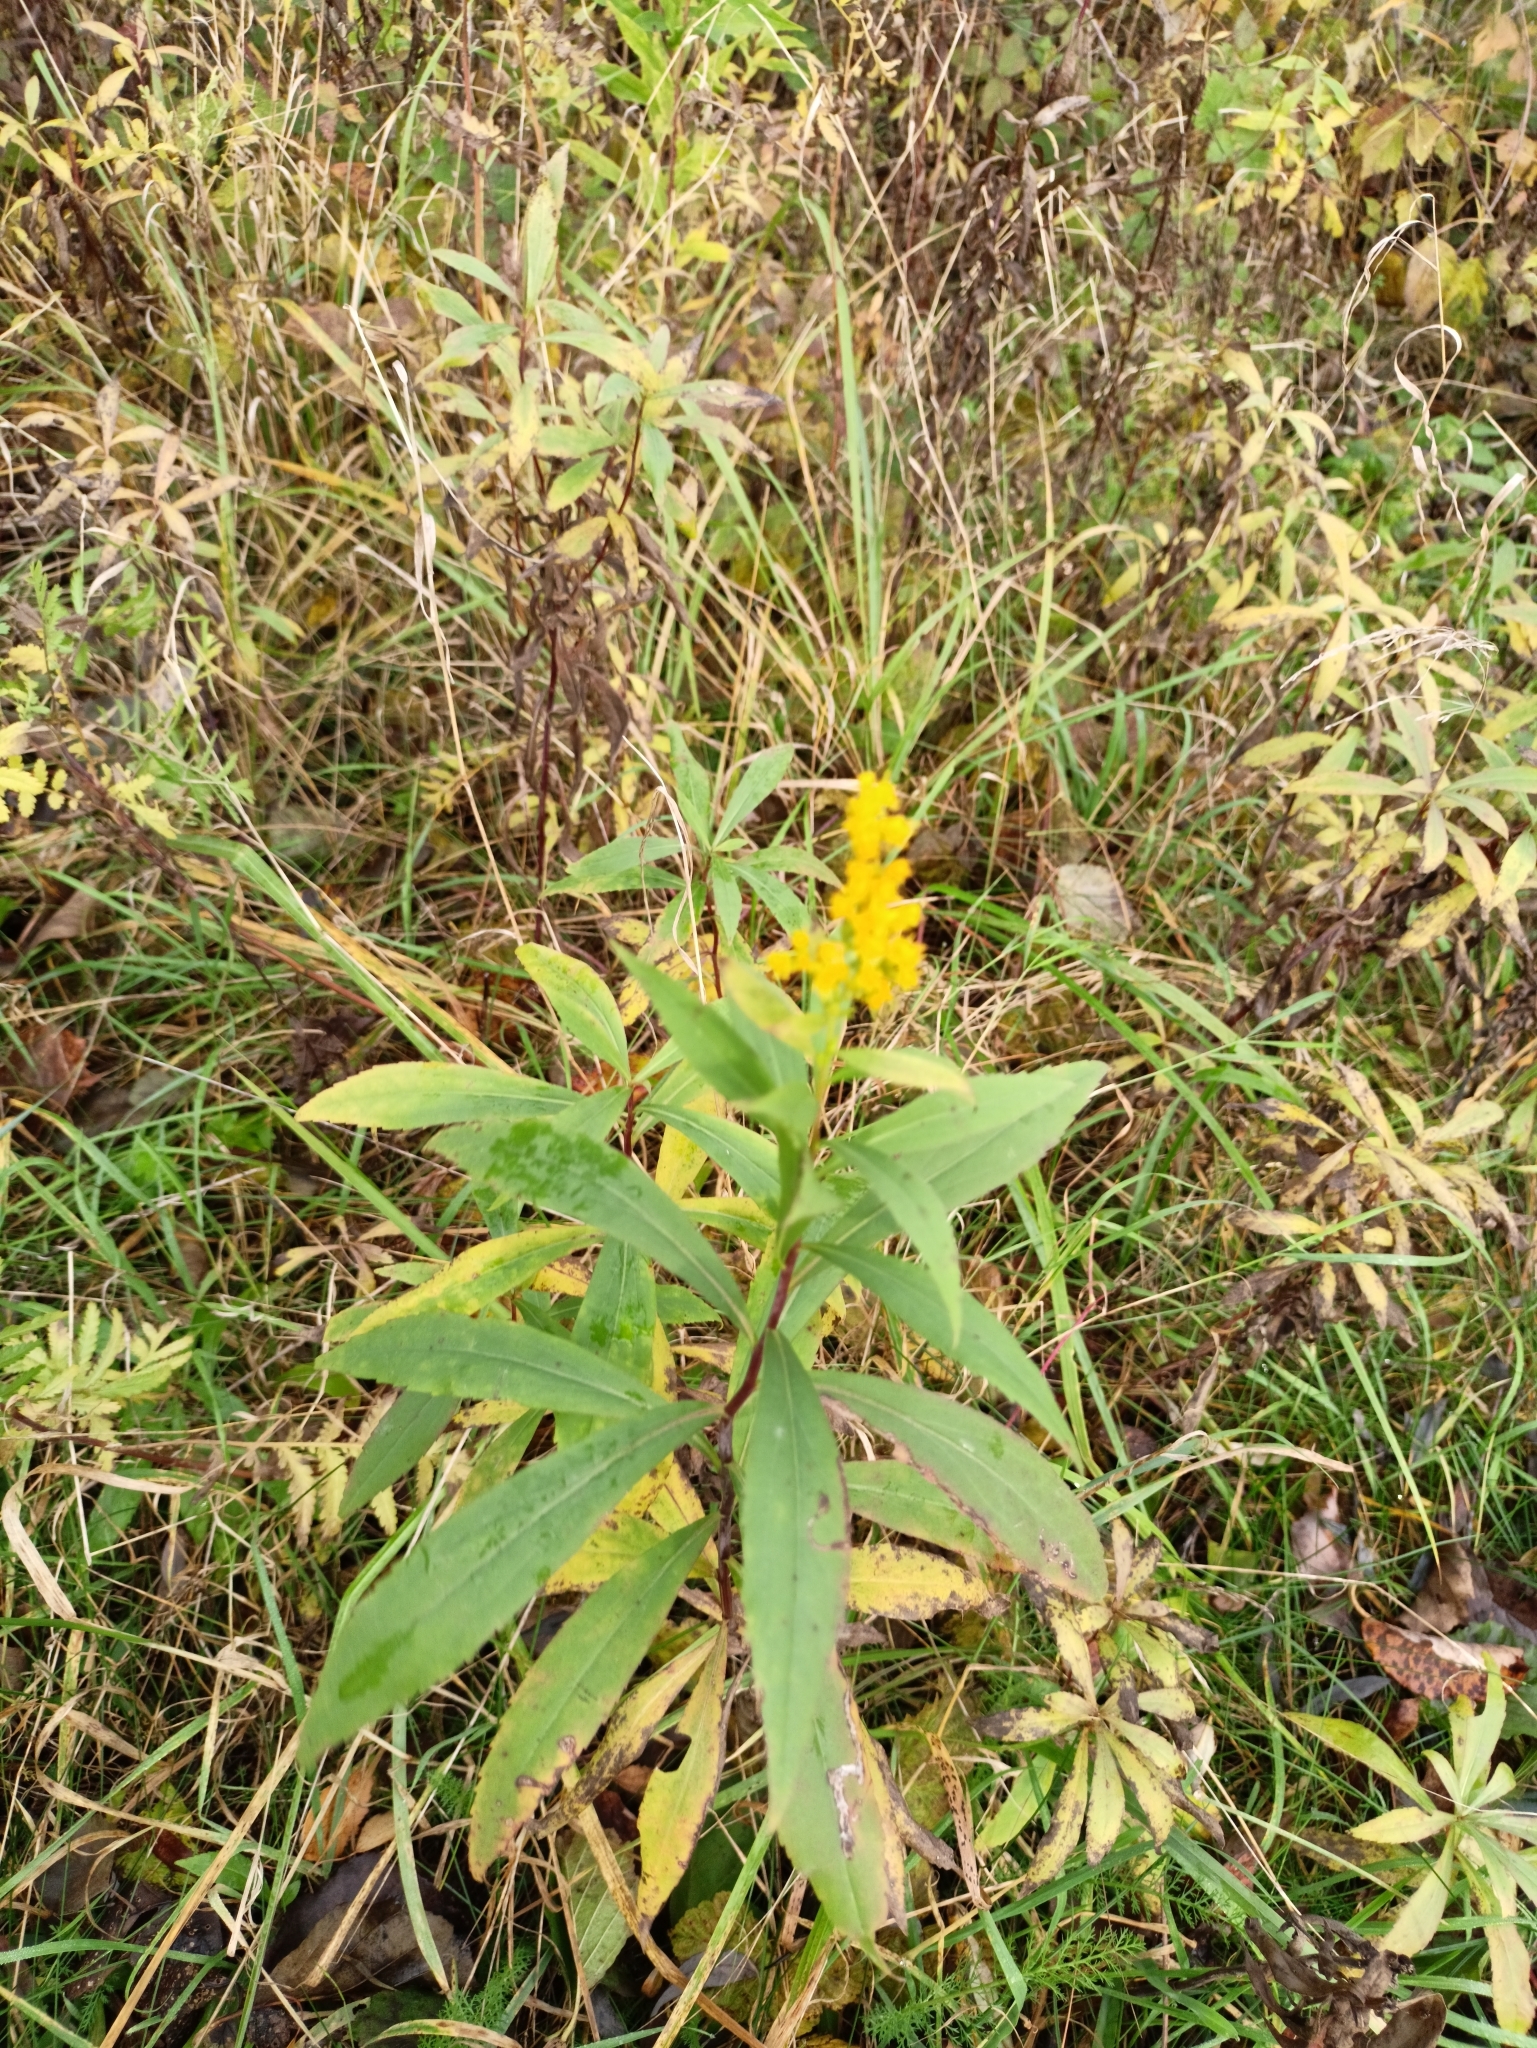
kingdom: Plantae
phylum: Tracheophyta
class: Magnoliopsida
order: Asterales
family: Asteraceae
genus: Solidago
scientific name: Solidago gigantea
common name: Giant goldenrod
